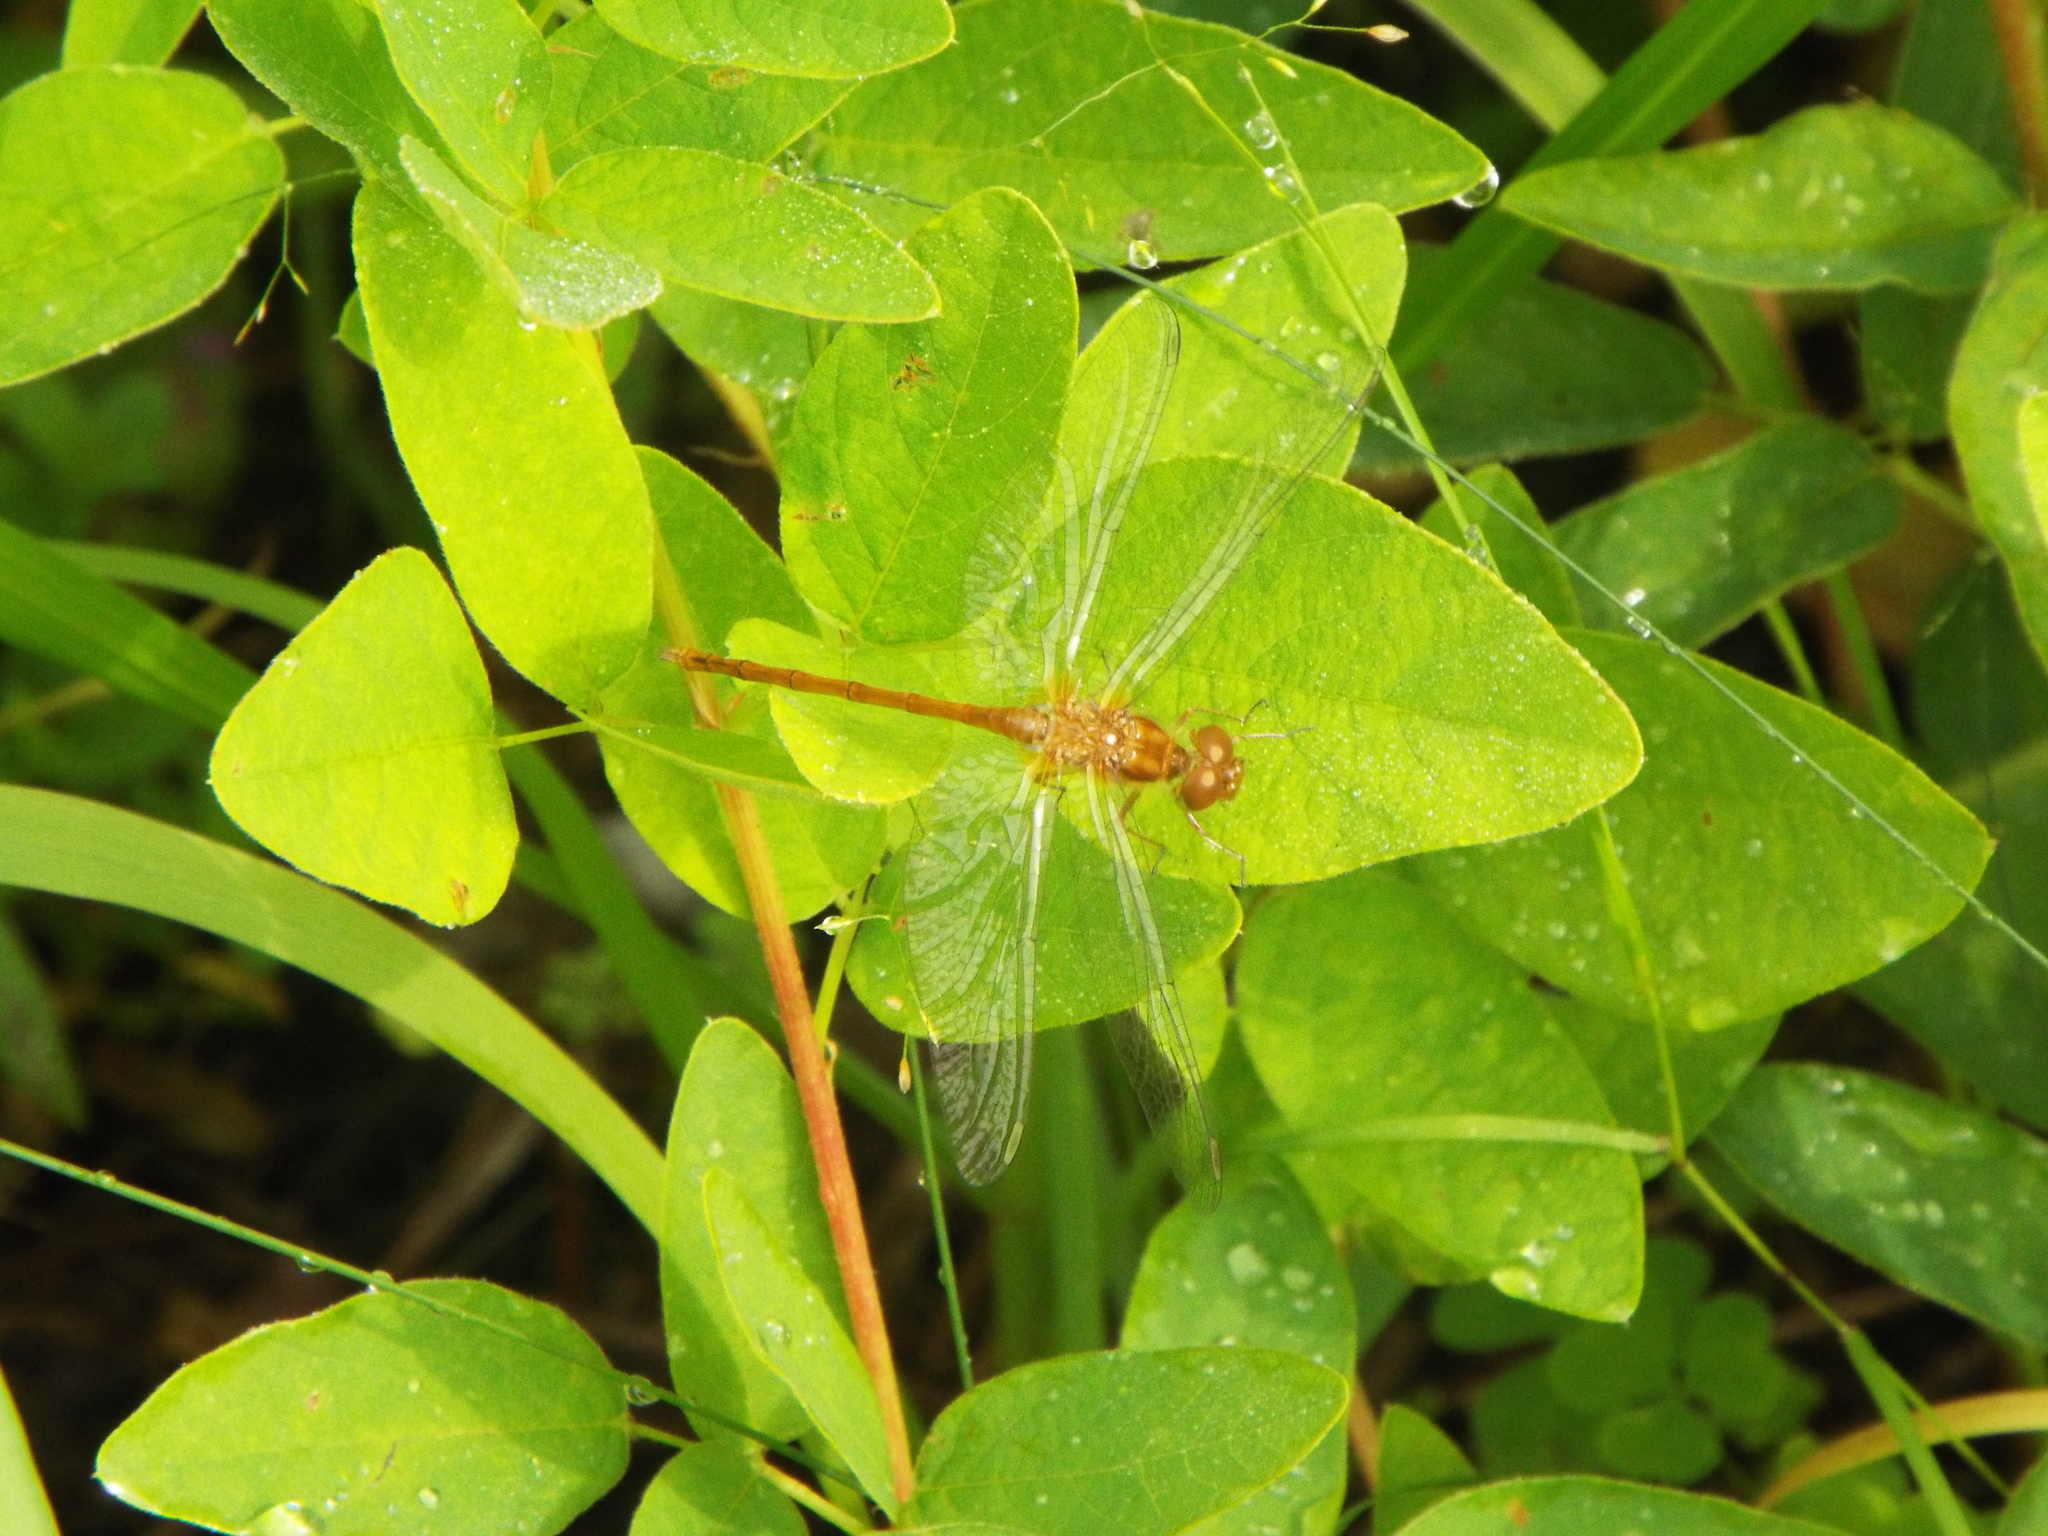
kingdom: Animalia
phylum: Arthropoda
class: Insecta
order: Odonata
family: Libellulidae
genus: Sympetrum
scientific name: Sympetrum vicinum
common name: Autumn meadowhawk
